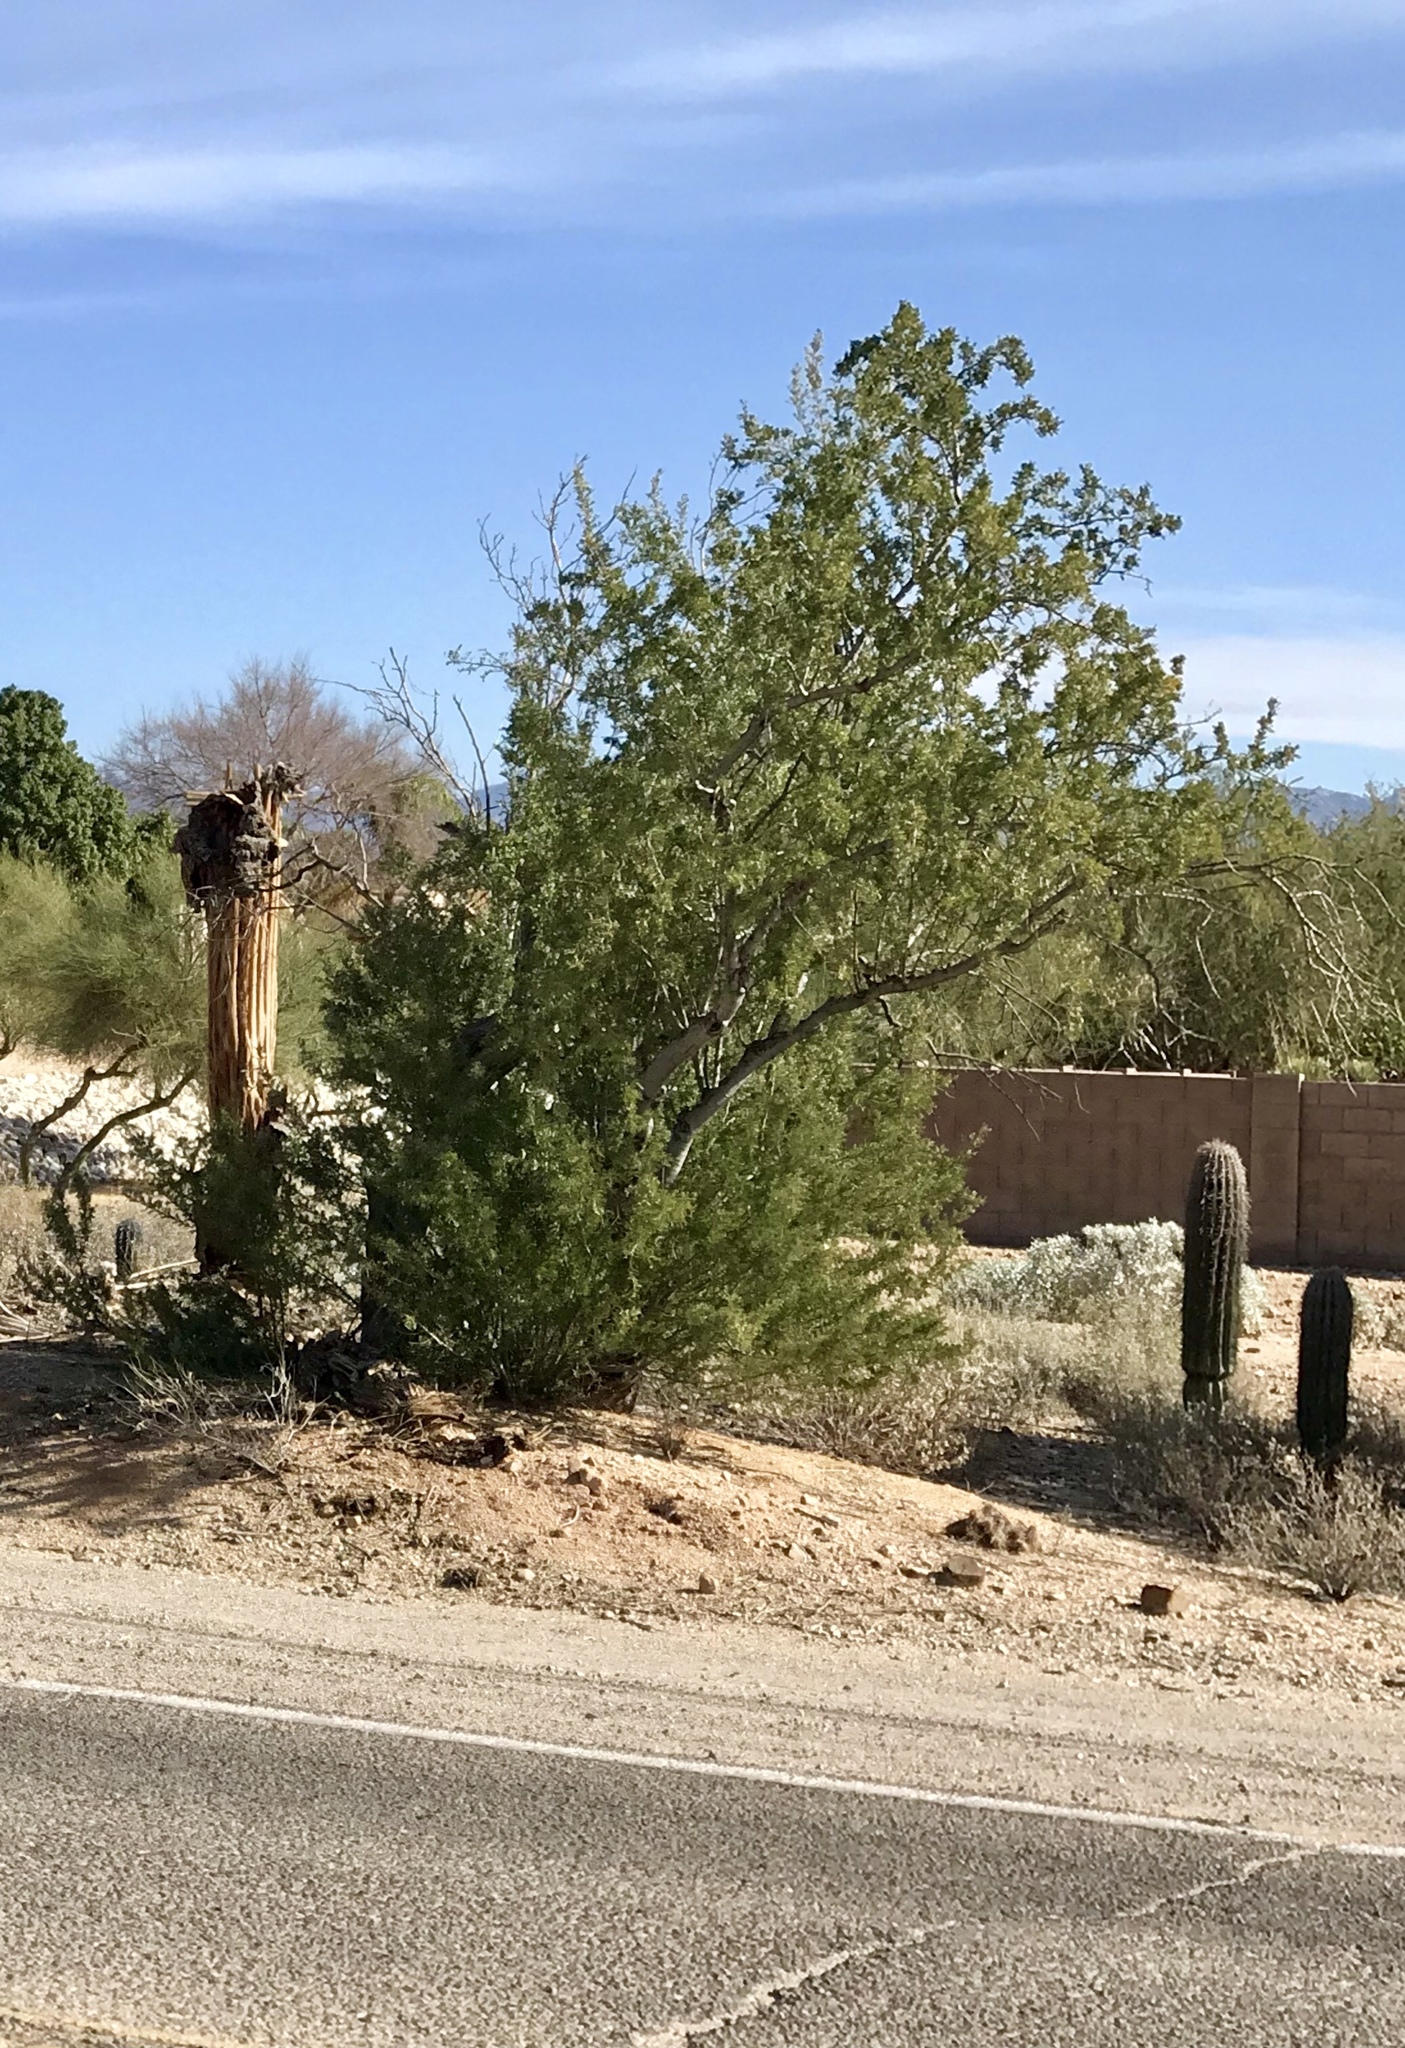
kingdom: Plantae
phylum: Tracheophyta
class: Magnoliopsida
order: Fabales
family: Fabaceae
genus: Olneya
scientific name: Olneya tesota
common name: Desert ironwood
